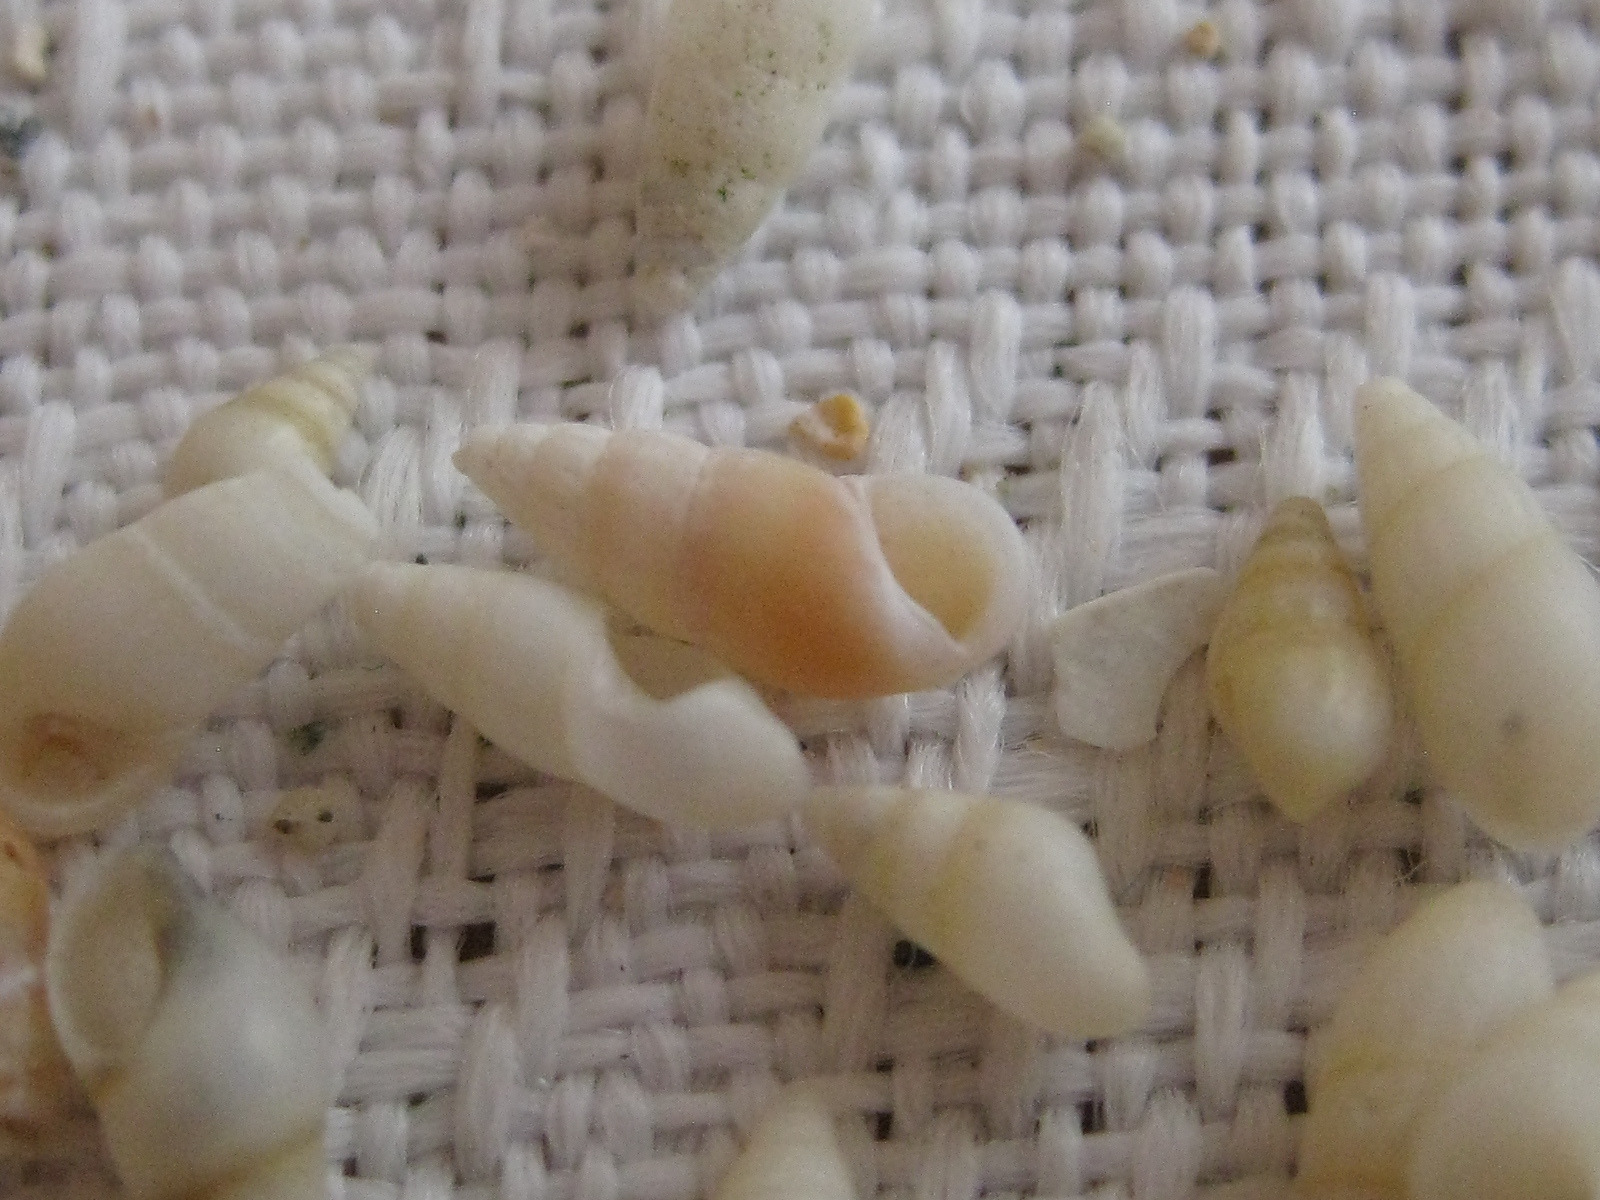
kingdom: Animalia
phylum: Mollusca
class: Gastropoda
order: Littorinimorpha
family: Rissoinidae
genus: Rissoina
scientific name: Rissoina anguina
